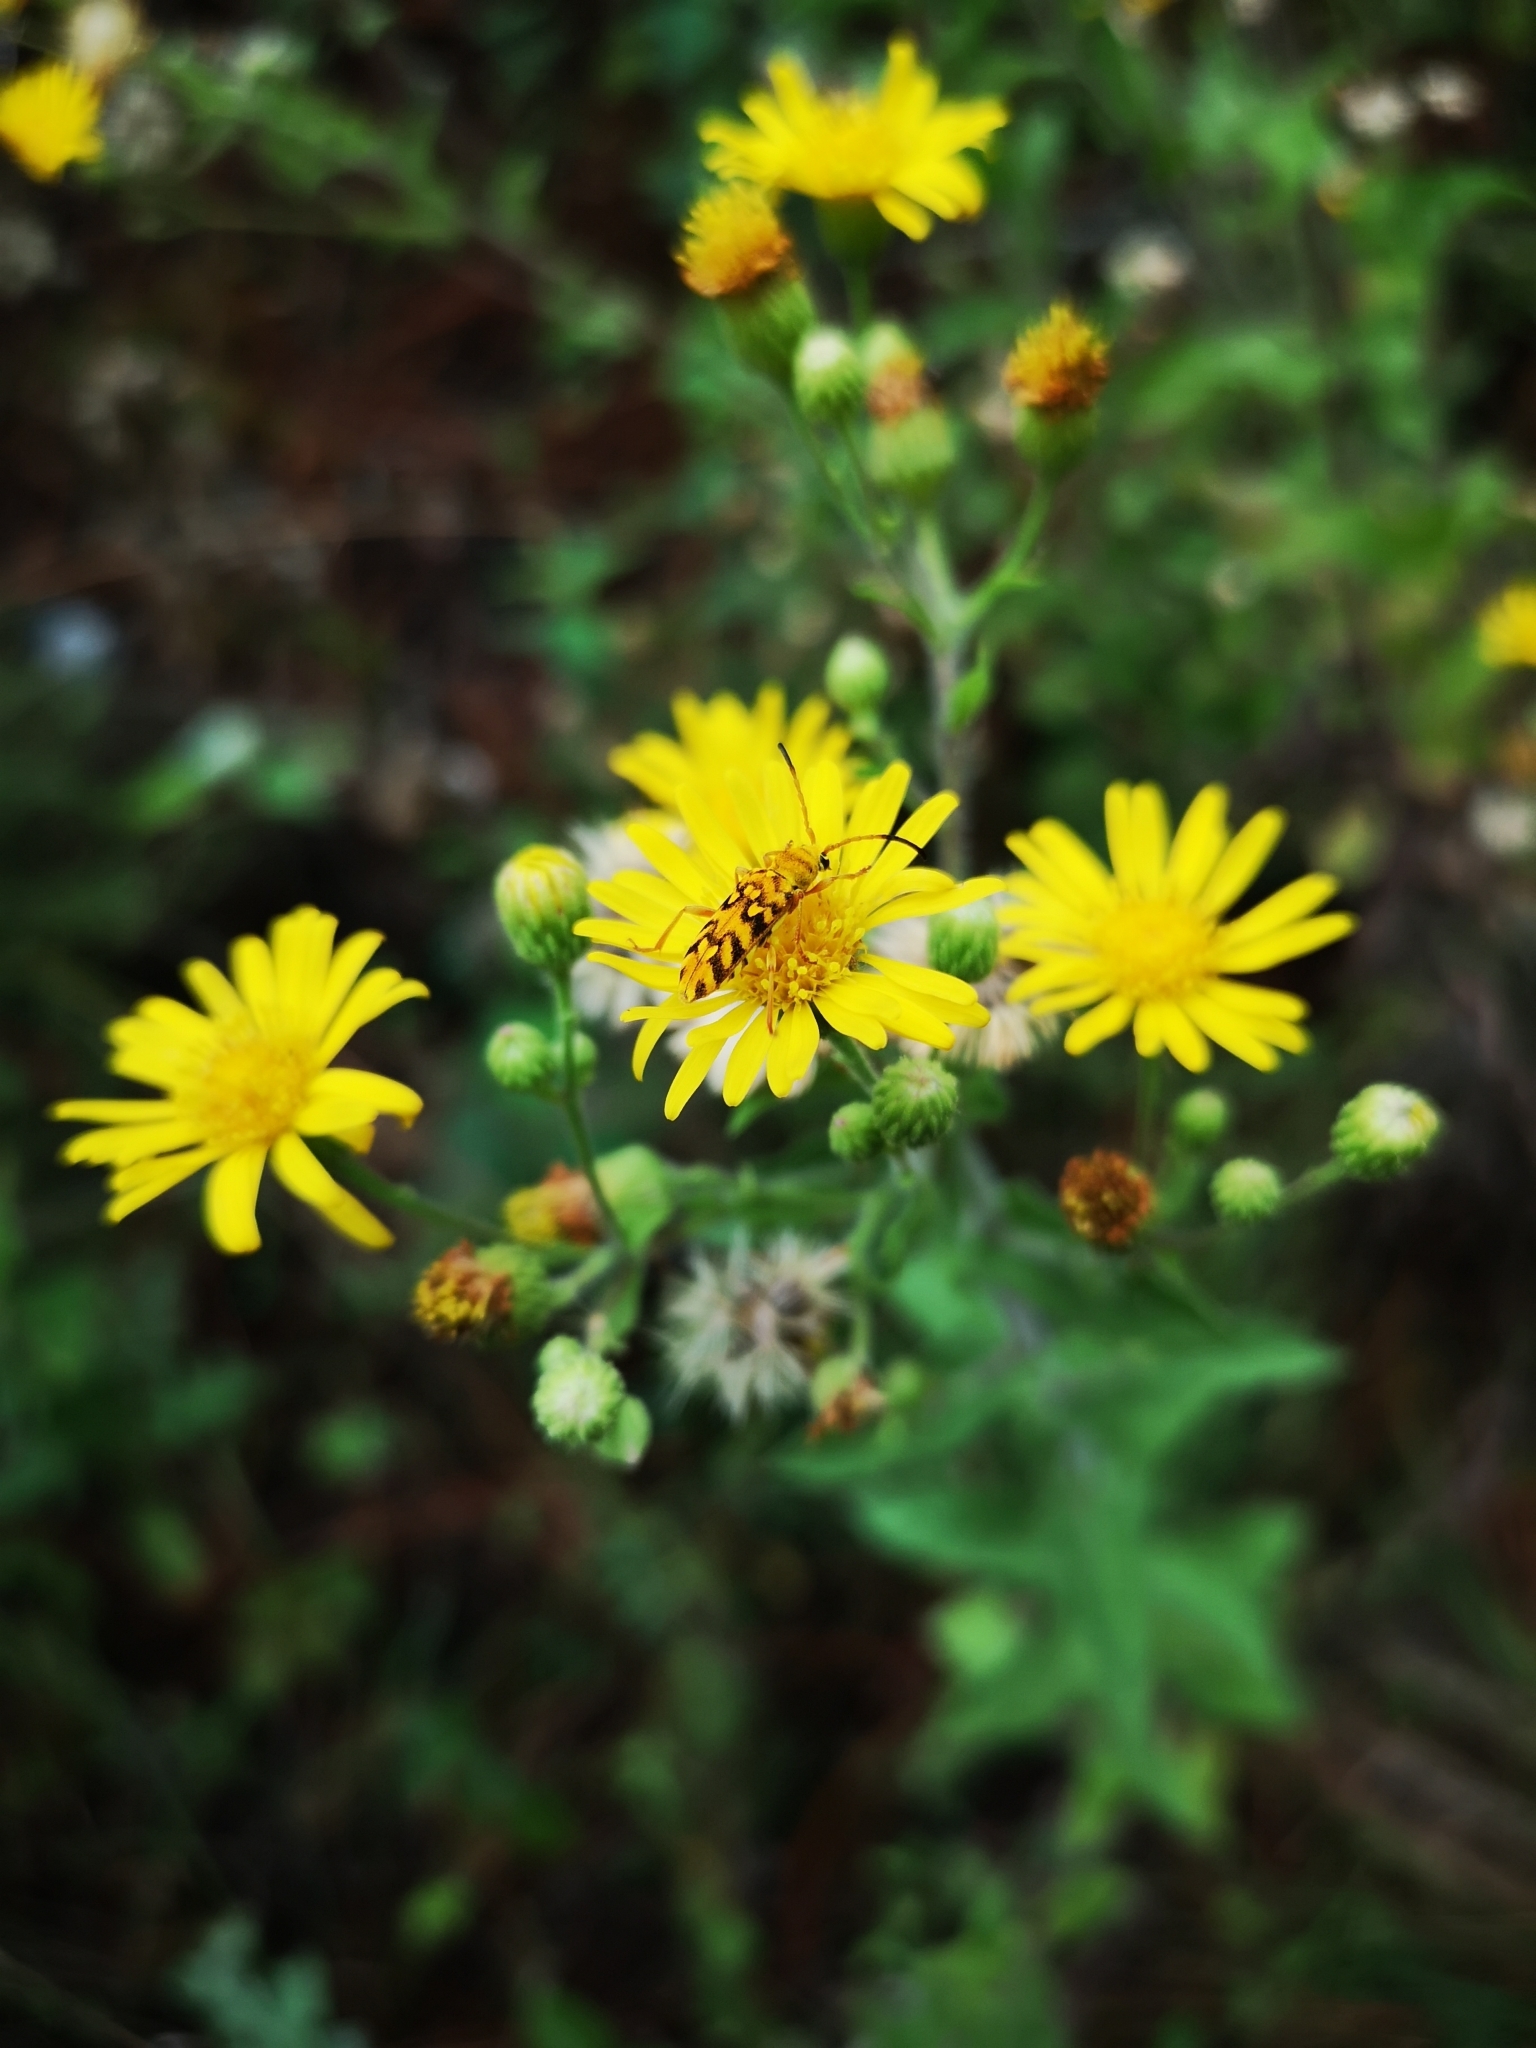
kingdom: Animalia
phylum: Arthropoda
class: Insecta
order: Coleoptera
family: Cerambycidae
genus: Ochraethes
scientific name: Ochraethes pollinosus
